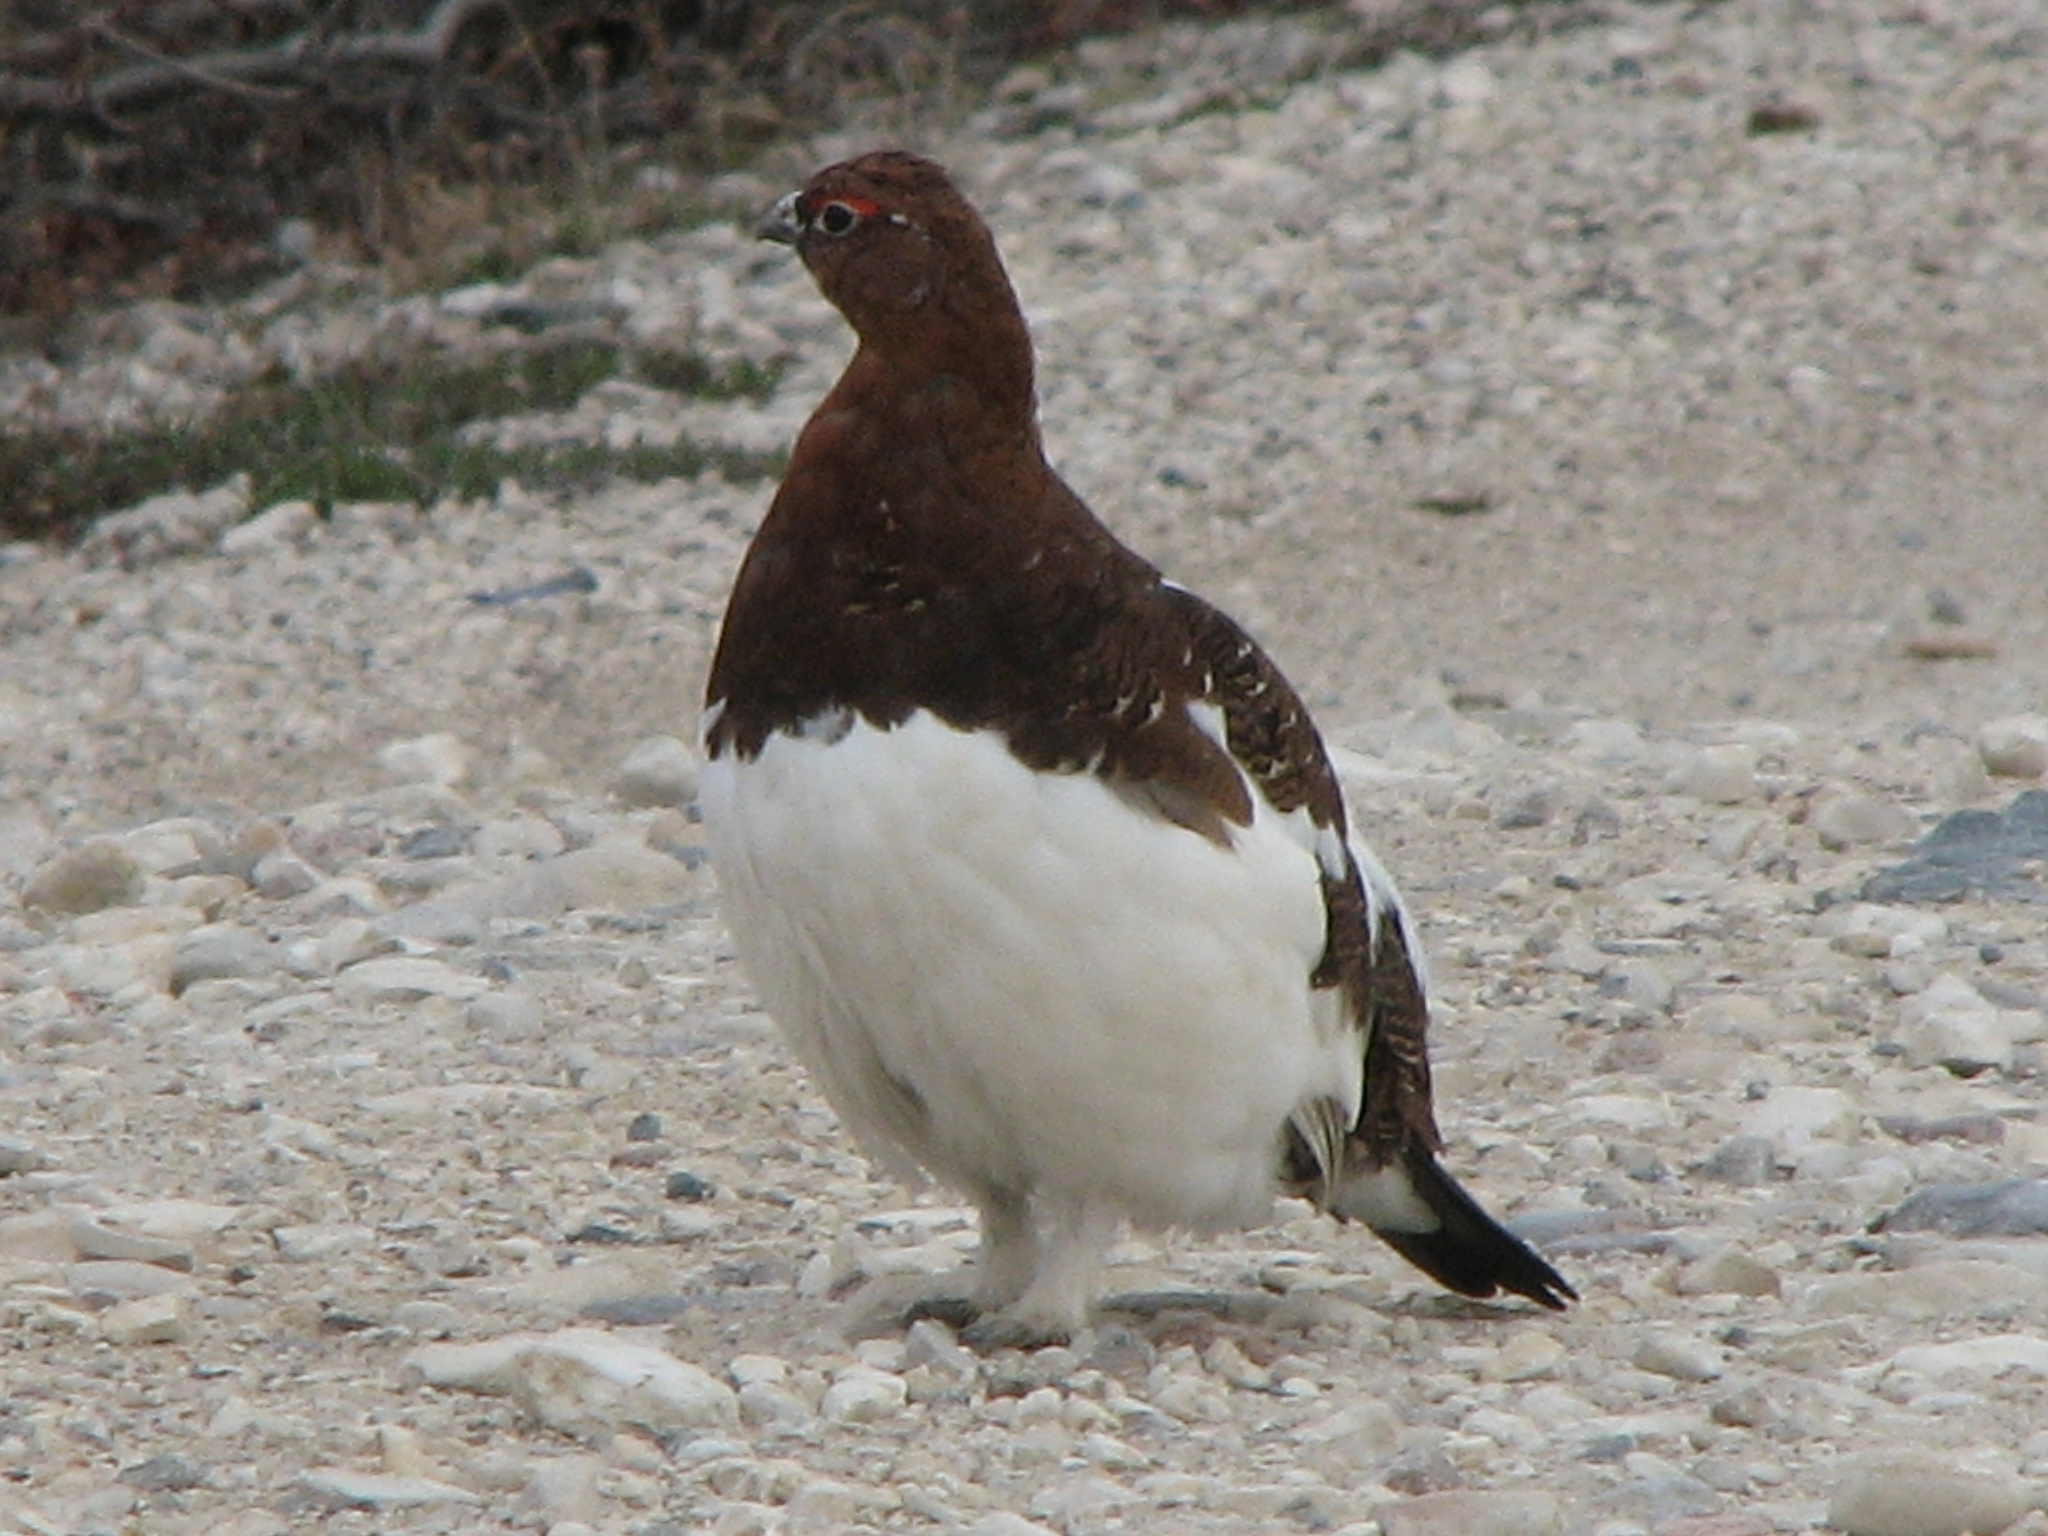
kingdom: Animalia
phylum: Chordata
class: Aves
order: Galliformes
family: Phasianidae
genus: Lagopus
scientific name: Lagopus lagopus
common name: Willow ptarmigan
